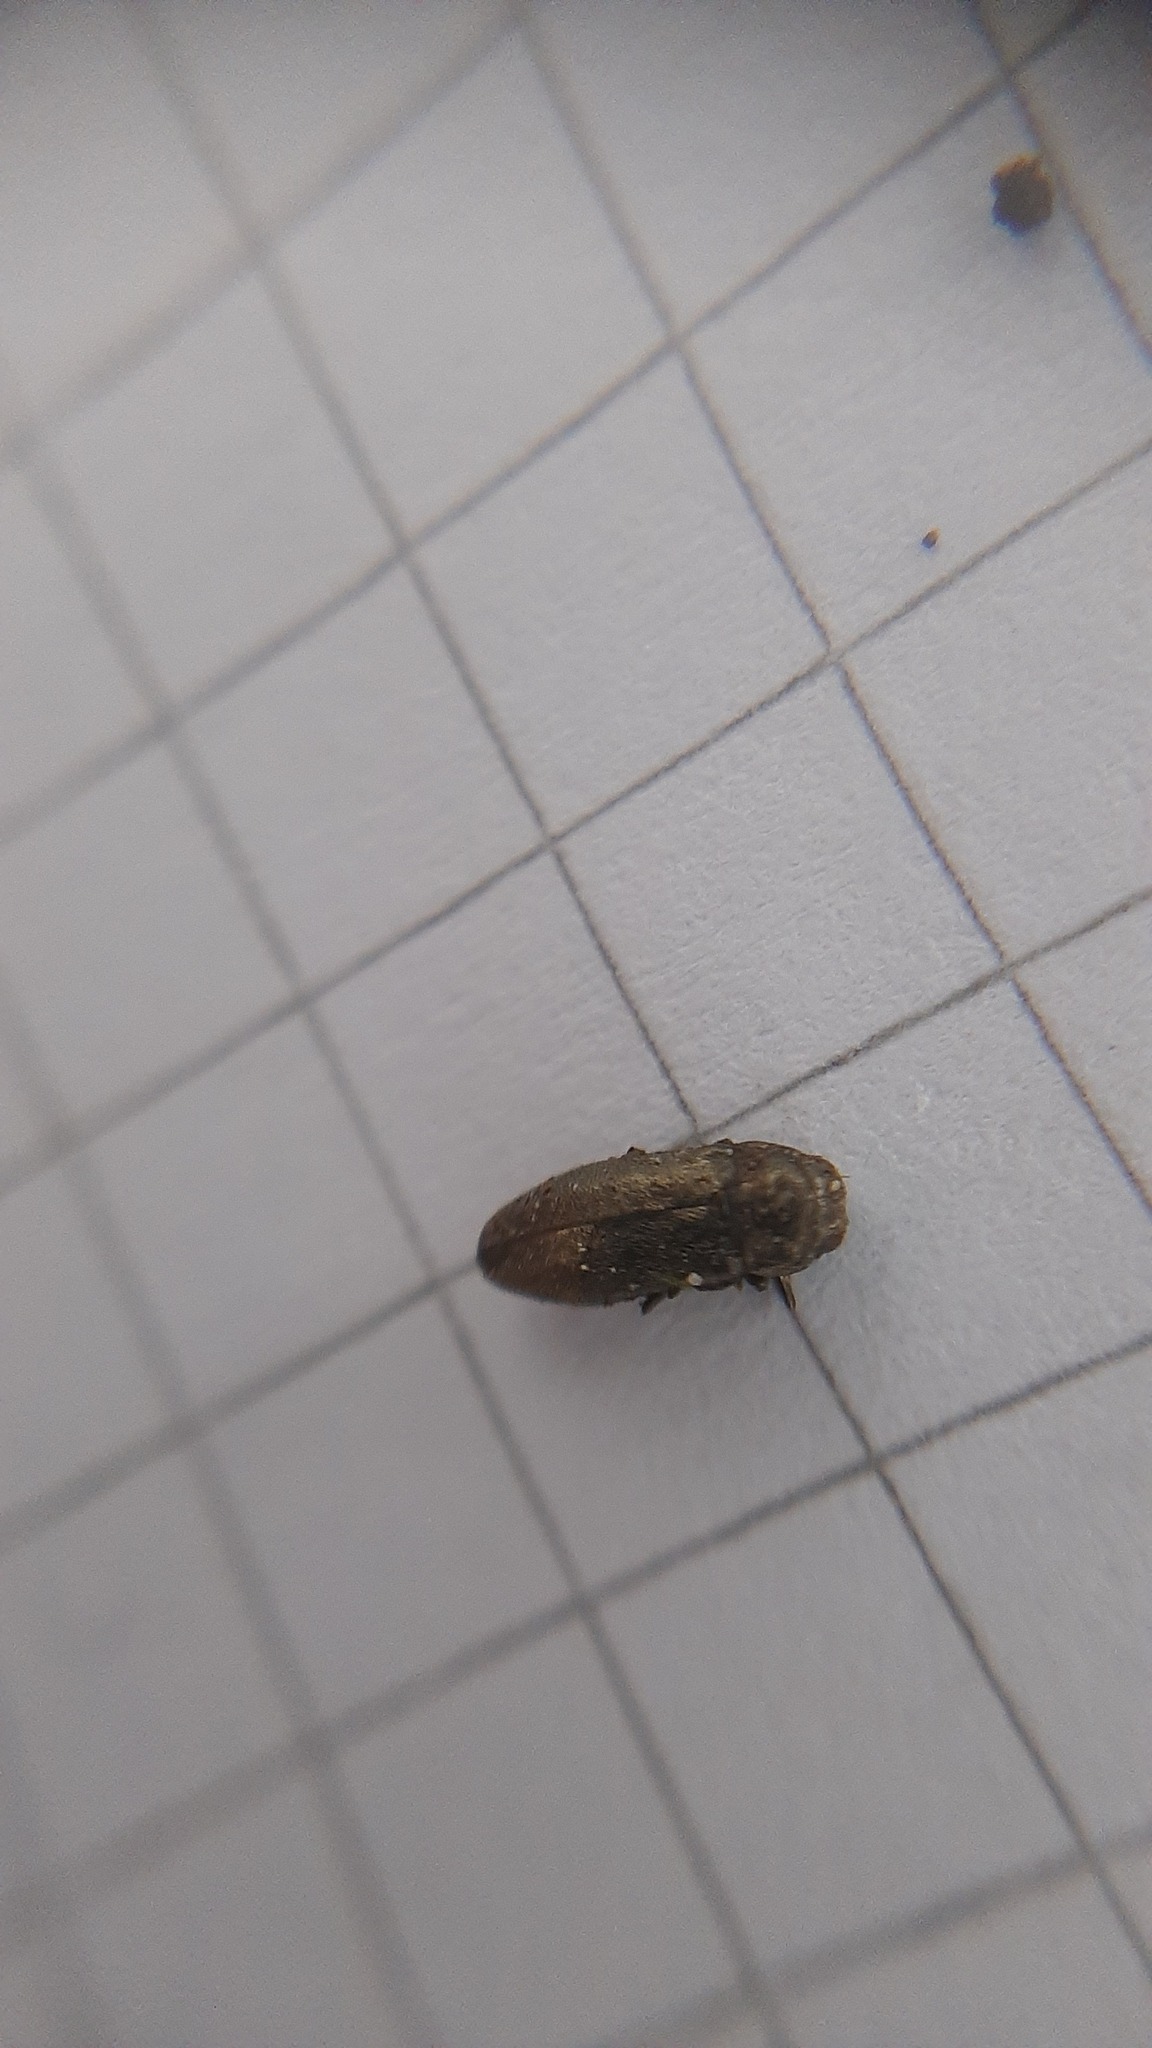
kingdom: Animalia
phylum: Arthropoda
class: Insecta
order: Coleoptera
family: Buprestidae
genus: Coraebus
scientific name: Coraebus elatus
